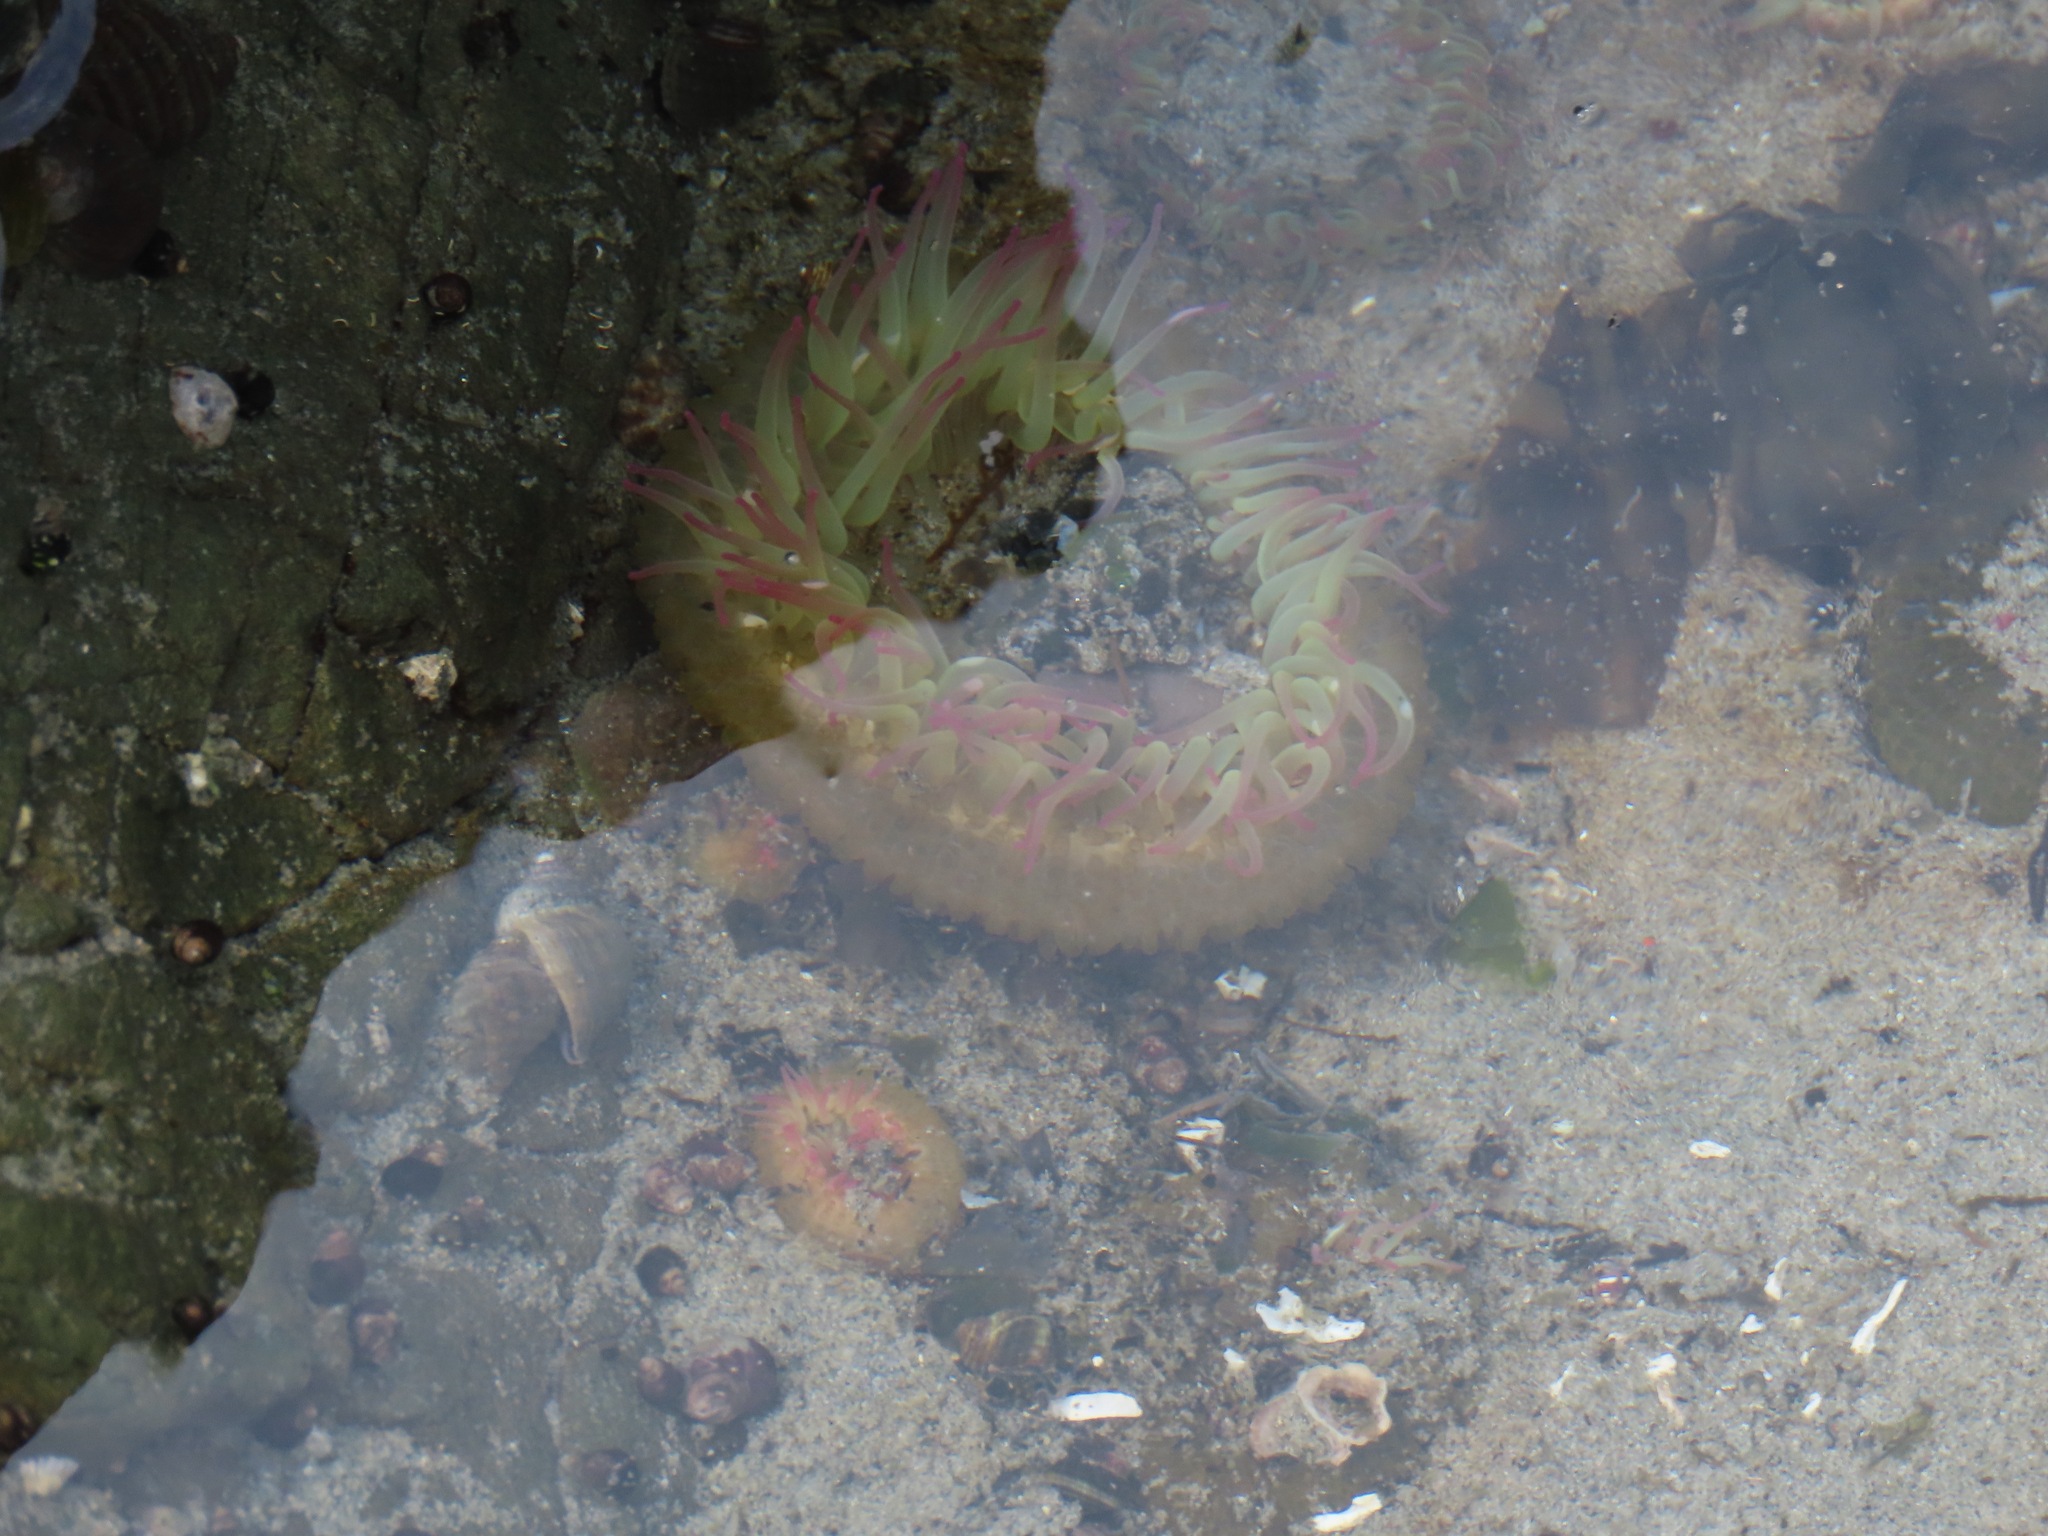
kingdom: Animalia
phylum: Cnidaria
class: Anthozoa
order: Actiniaria
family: Actiniidae
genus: Anthopleura
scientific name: Anthopleura elegantissima
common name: Clonal anemone
